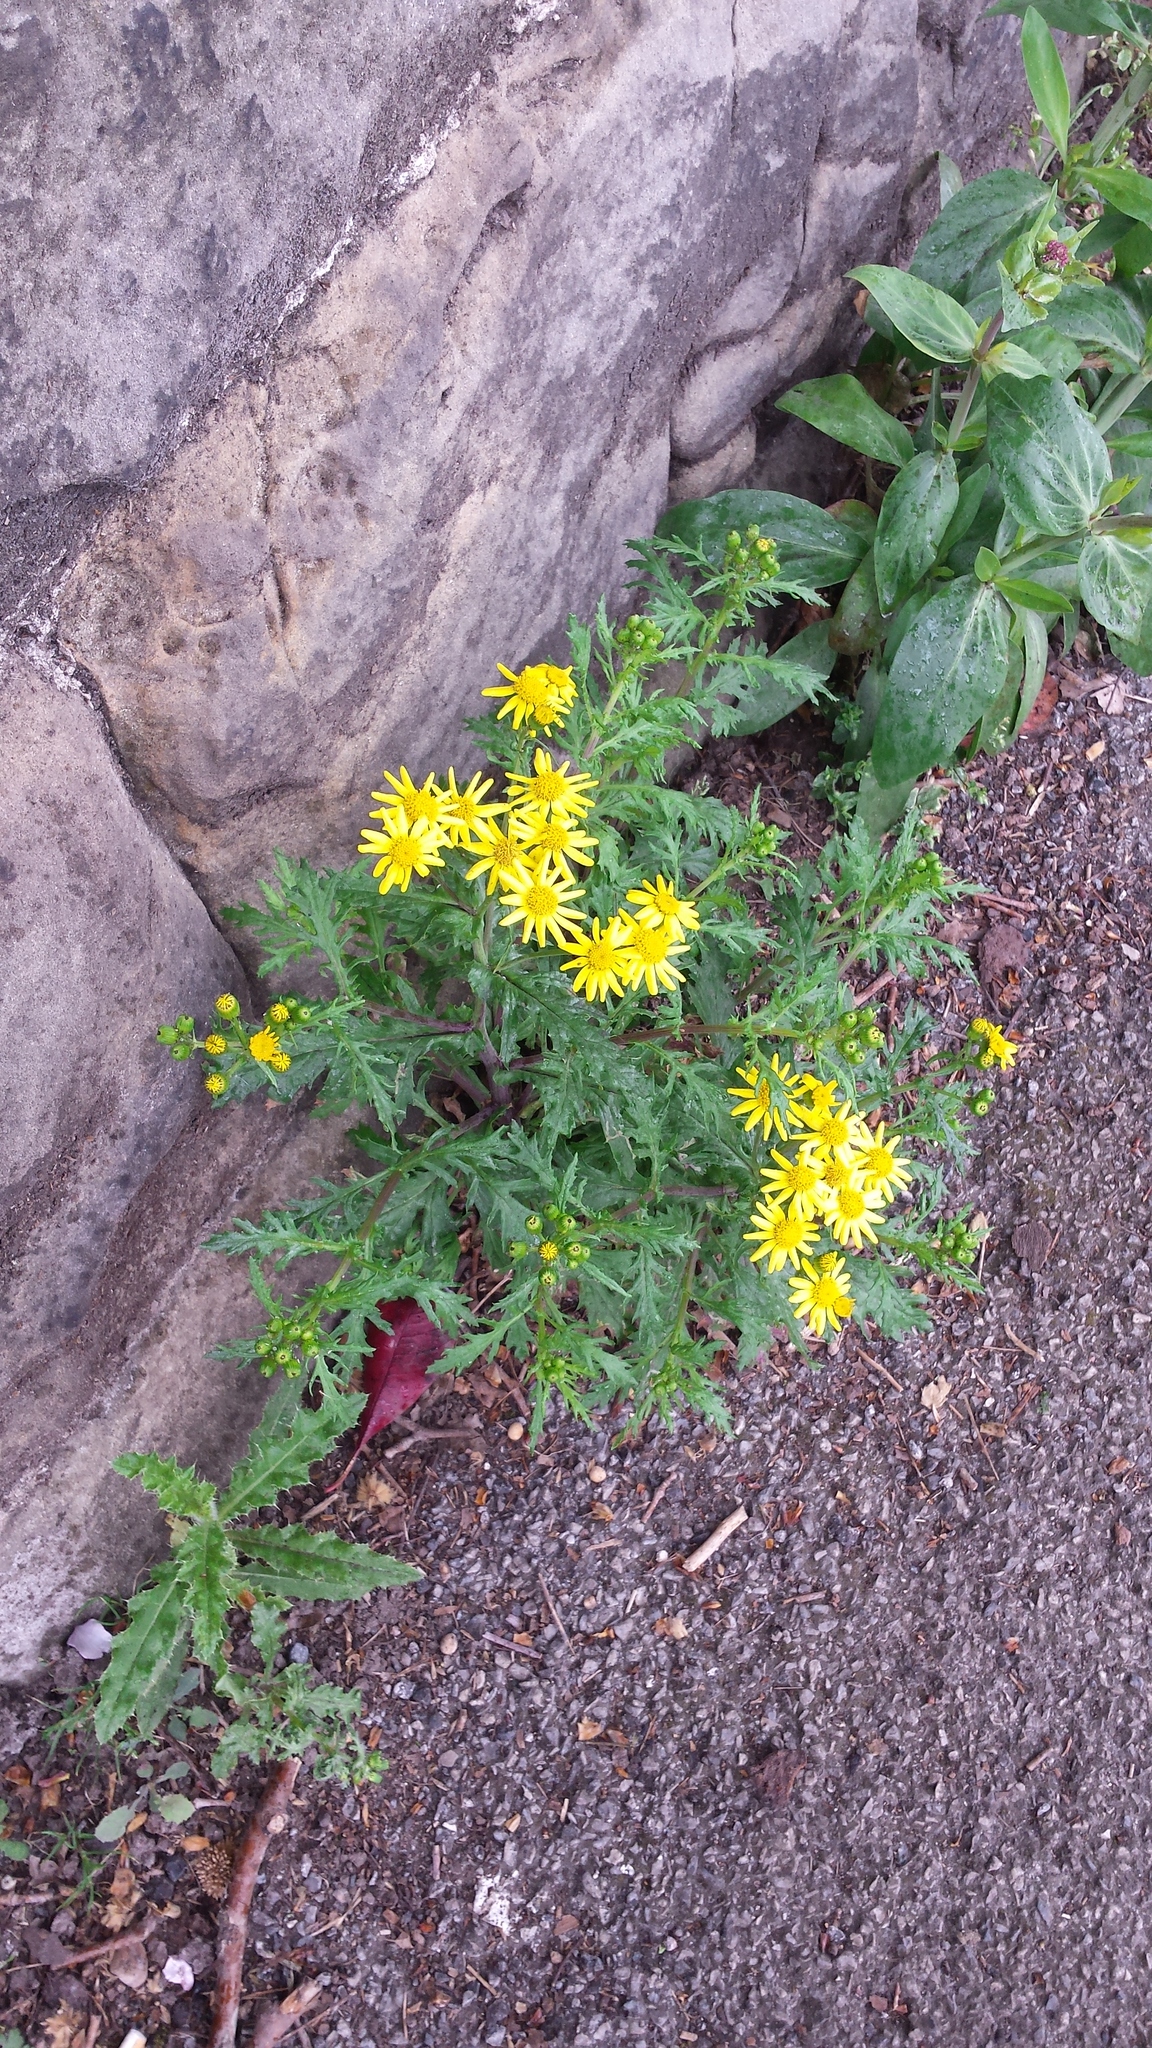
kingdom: Plantae
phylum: Tracheophyta
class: Magnoliopsida
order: Asterales
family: Asteraceae
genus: Senecio
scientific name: Senecio squalidus
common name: Oxford ragwort
